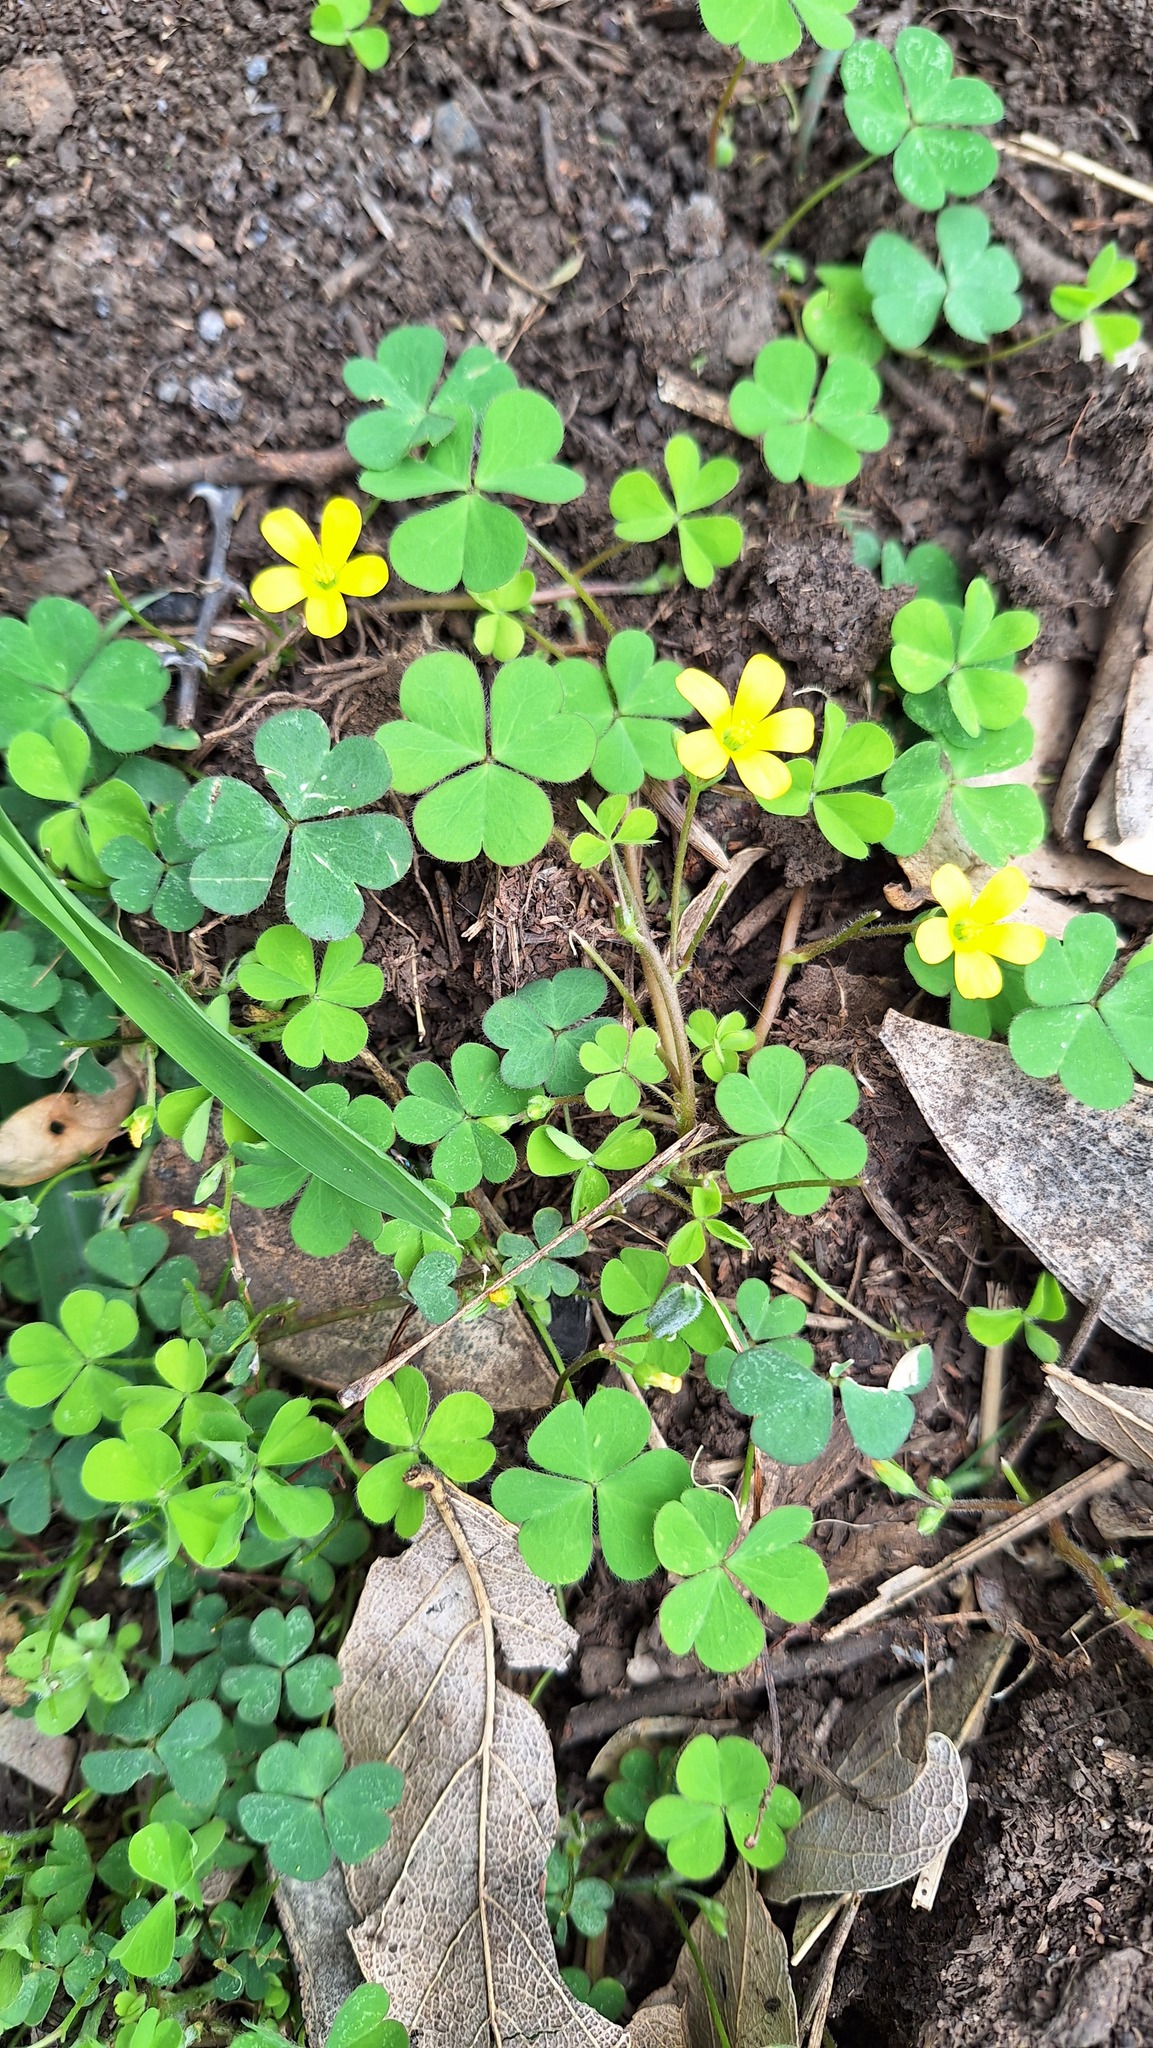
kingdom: Plantae
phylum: Tracheophyta
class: Magnoliopsida
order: Oxalidales
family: Oxalidaceae
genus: Oxalis
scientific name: Oxalis corniculata
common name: Procumbent yellow-sorrel
